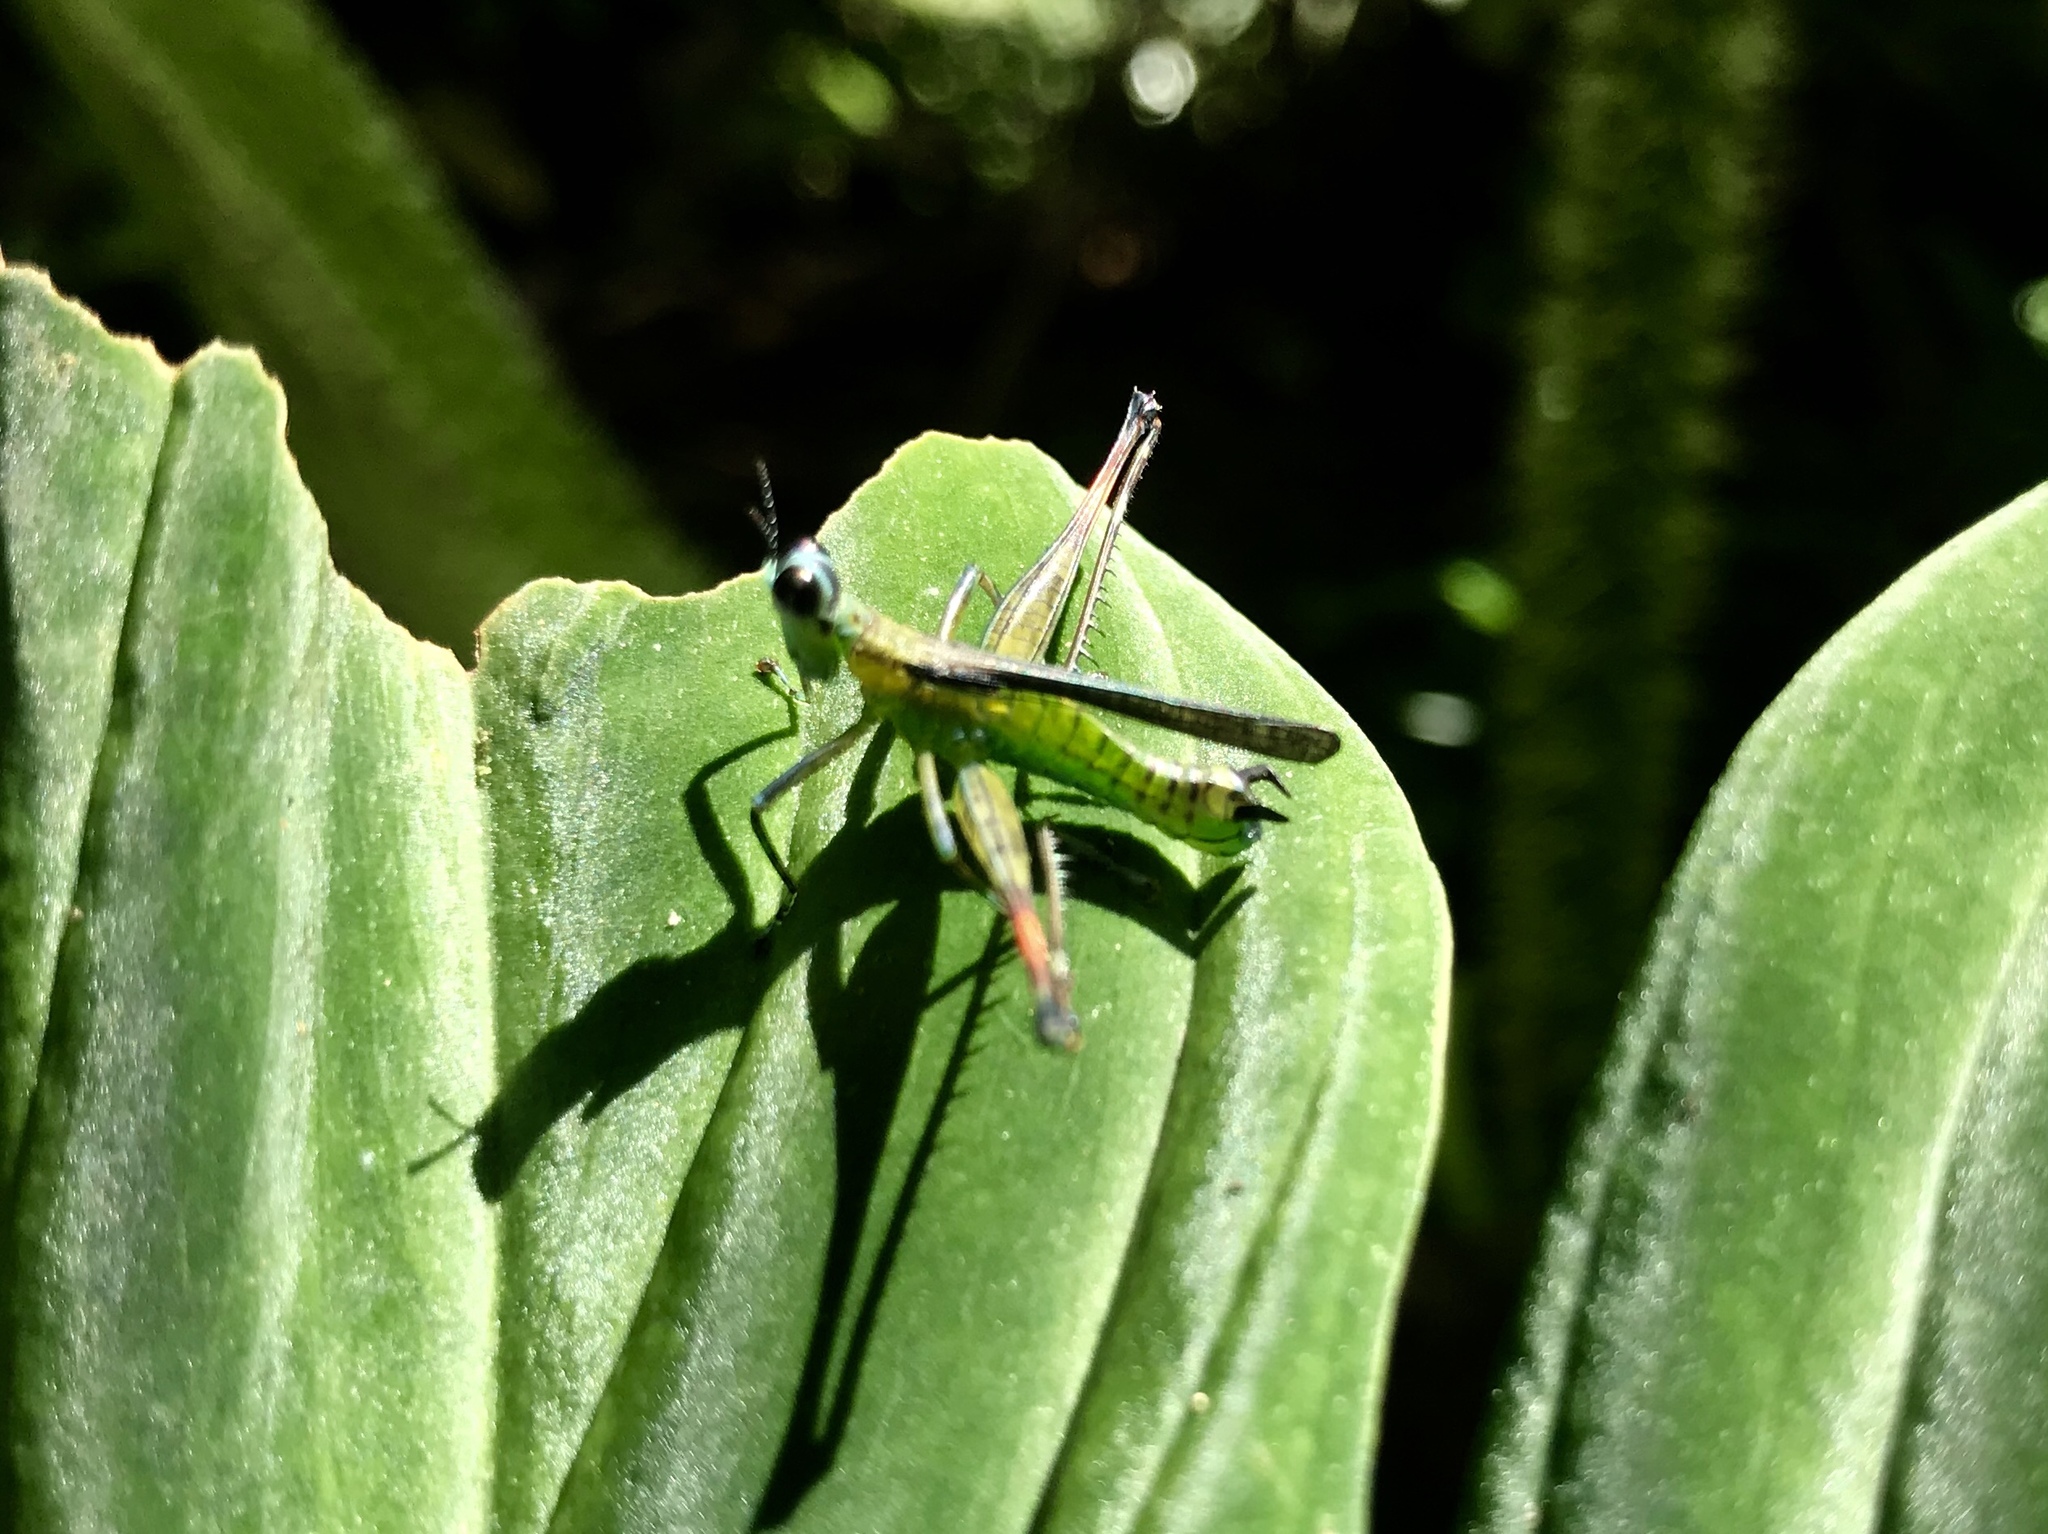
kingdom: Animalia
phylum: Arthropoda
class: Insecta
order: Orthoptera
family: Eumastacidae
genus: Homeomastax
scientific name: Homeomastax cerciata
